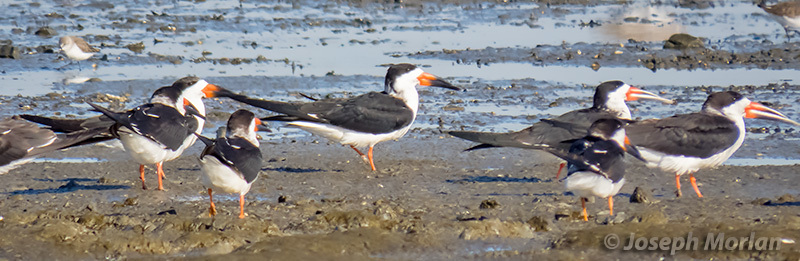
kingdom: Animalia
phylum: Chordata
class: Aves
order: Charadriiformes
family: Laridae
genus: Rynchops
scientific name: Rynchops niger
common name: Black skimmer
